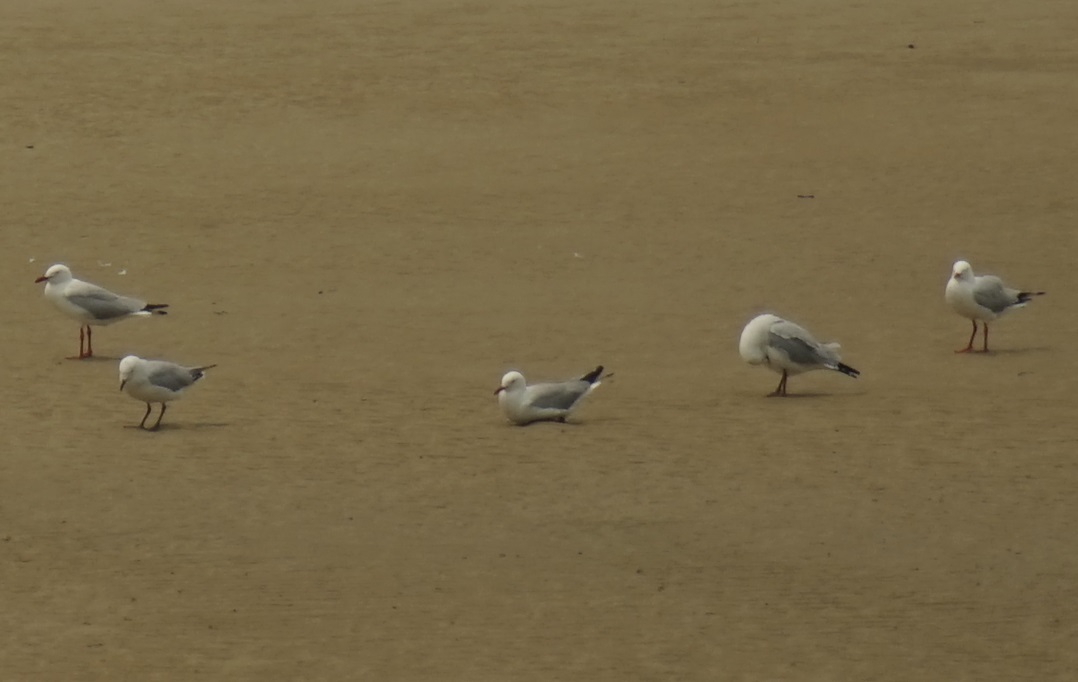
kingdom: Animalia
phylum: Chordata
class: Aves
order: Charadriiformes
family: Laridae
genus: Chroicocephalus
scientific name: Chroicocephalus novaehollandiae
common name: Silver gull
